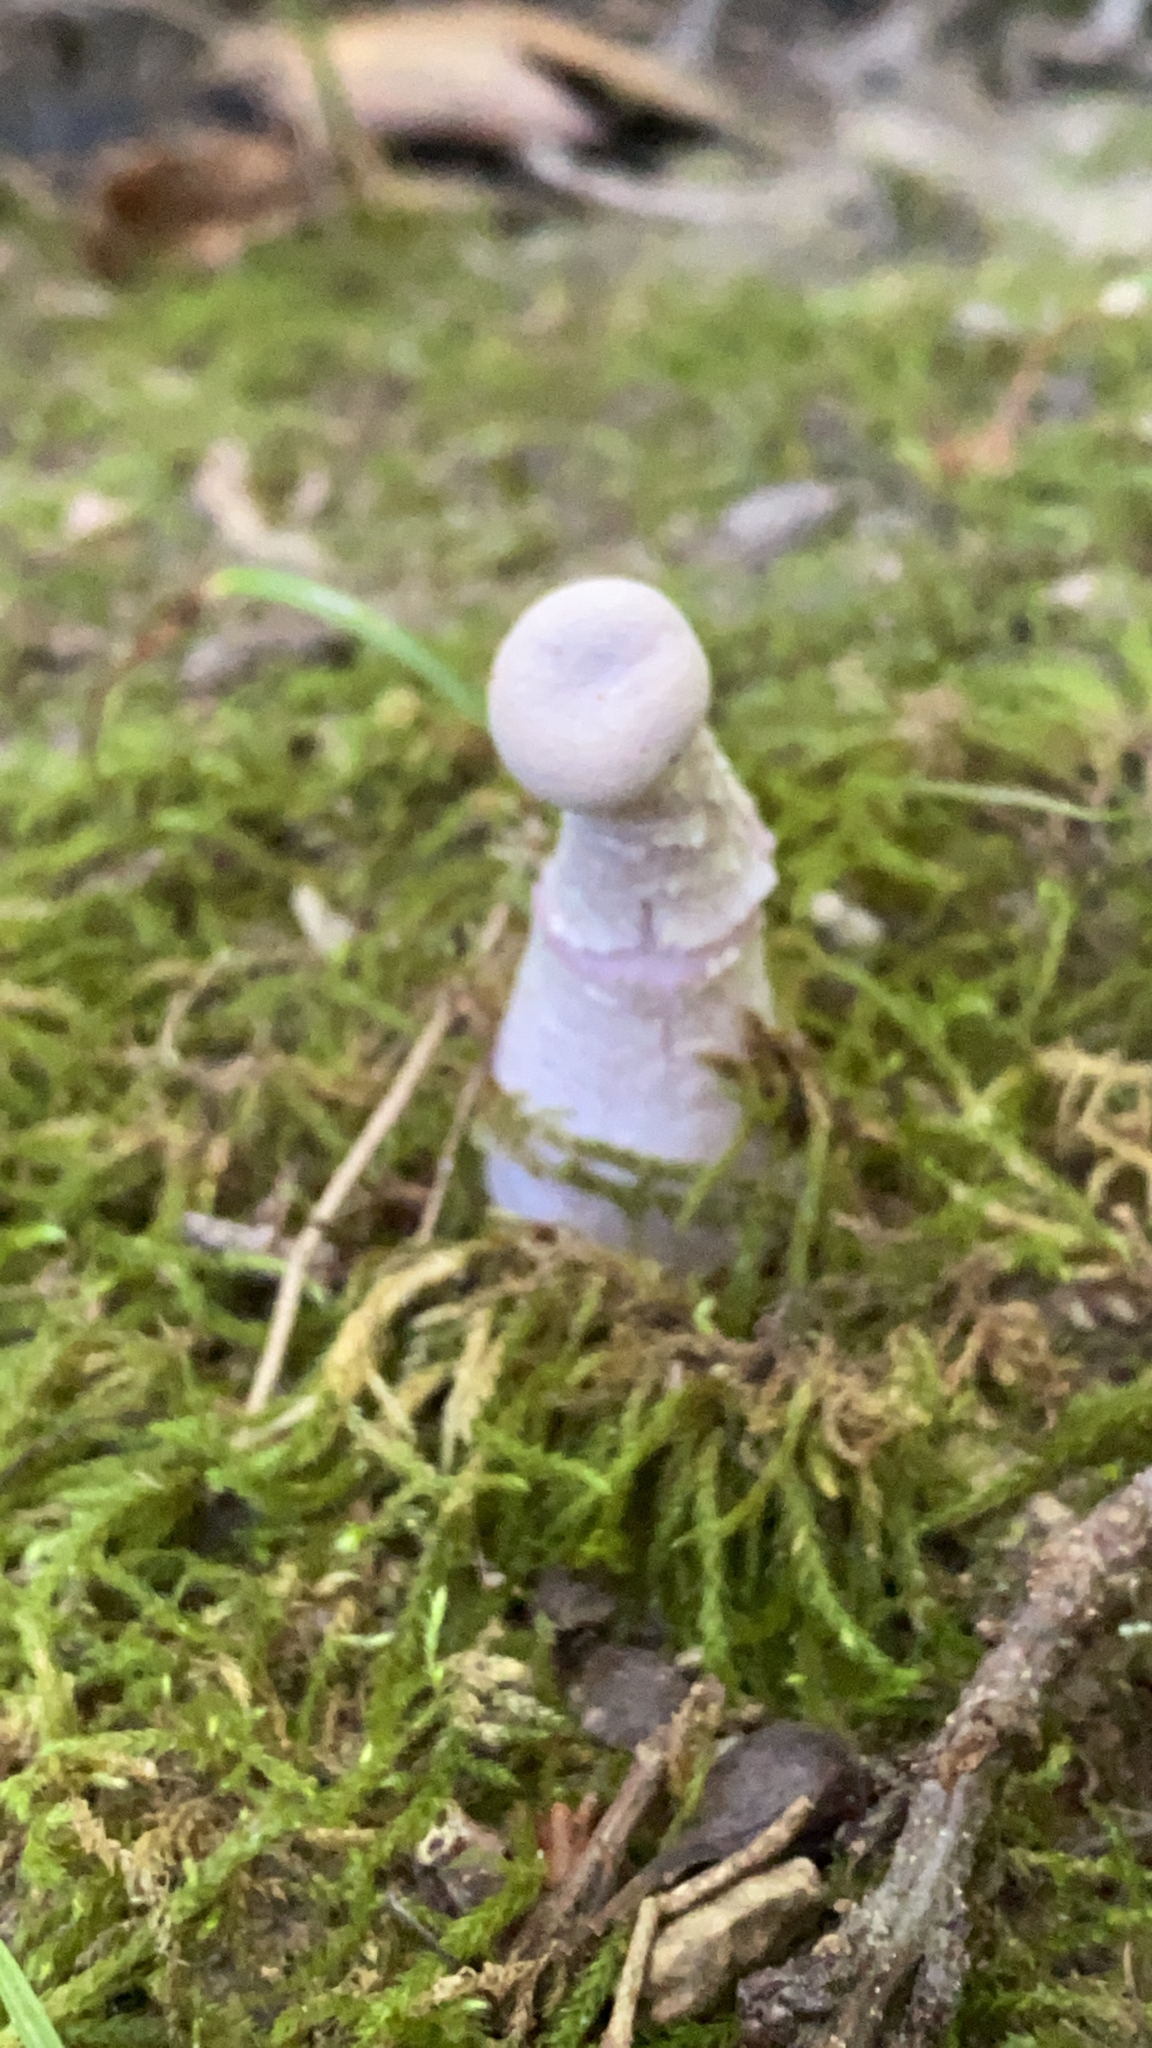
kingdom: Fungi
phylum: Basidiomycota
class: Agaricomycetes
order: Agaricales
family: Hydnangiaceae
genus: Laccaria
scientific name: Laccaria ochropurpurea
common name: Purple laccaria
